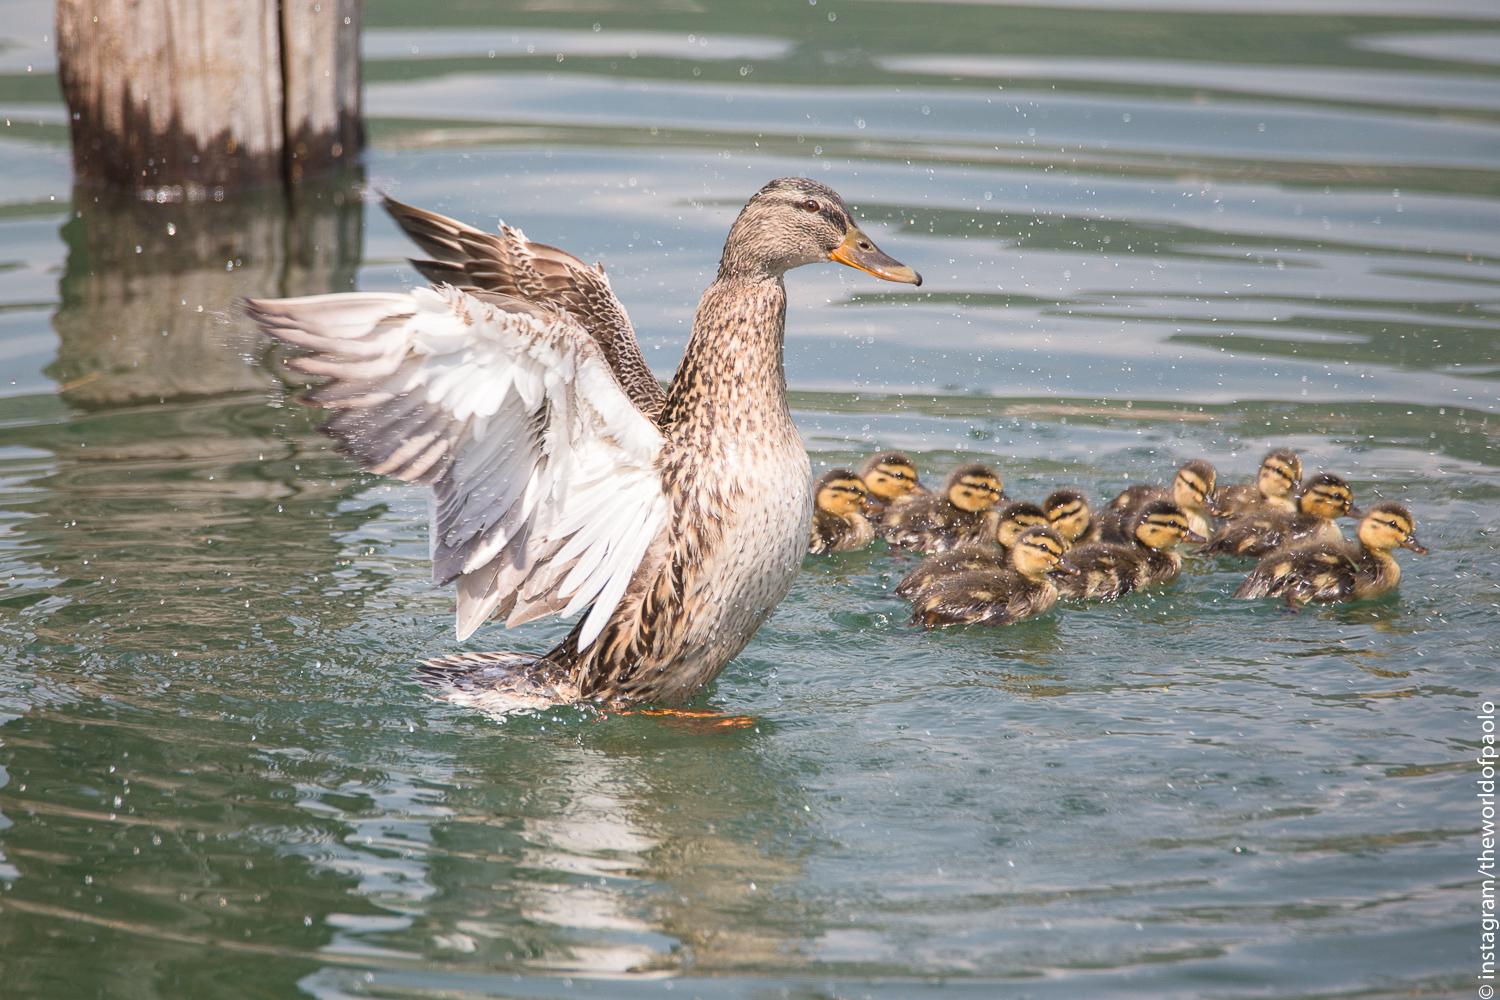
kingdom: Animalia
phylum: Chordata
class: Aves
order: Anseriformes
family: Anatidae
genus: Anas
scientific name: Anas platyrhynchos
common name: Mallard
